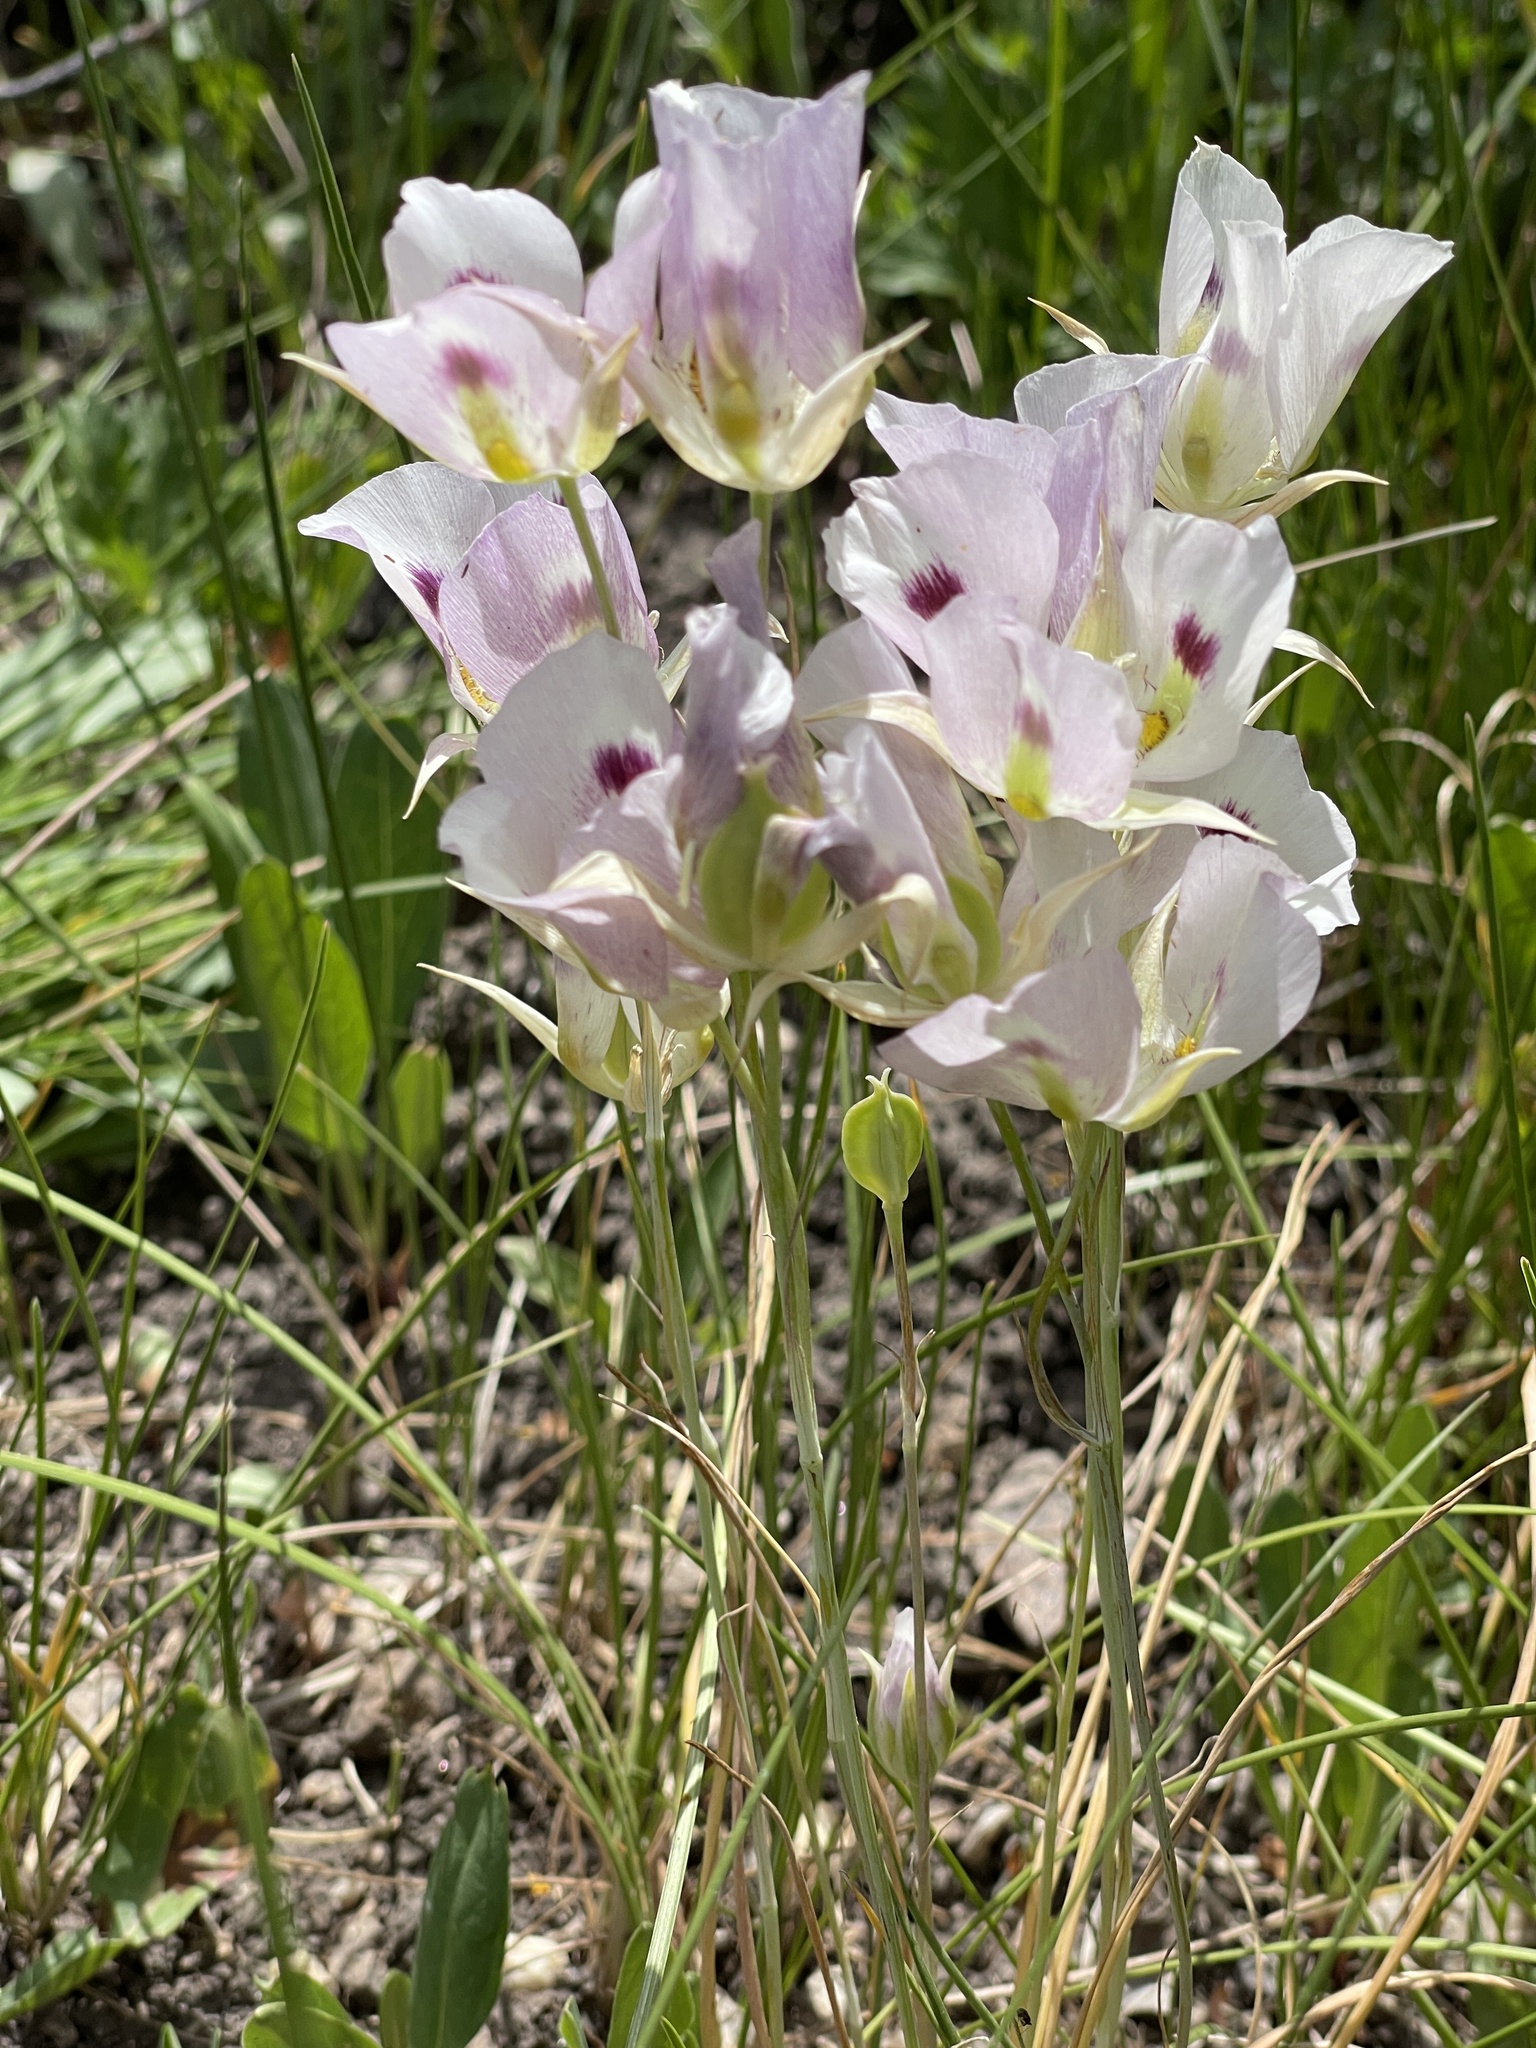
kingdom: Plantae
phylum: Tracheophyta
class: Liliopsida
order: Liliales
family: Liliaceae
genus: Calochortus
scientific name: Calochortus eurycarpus
